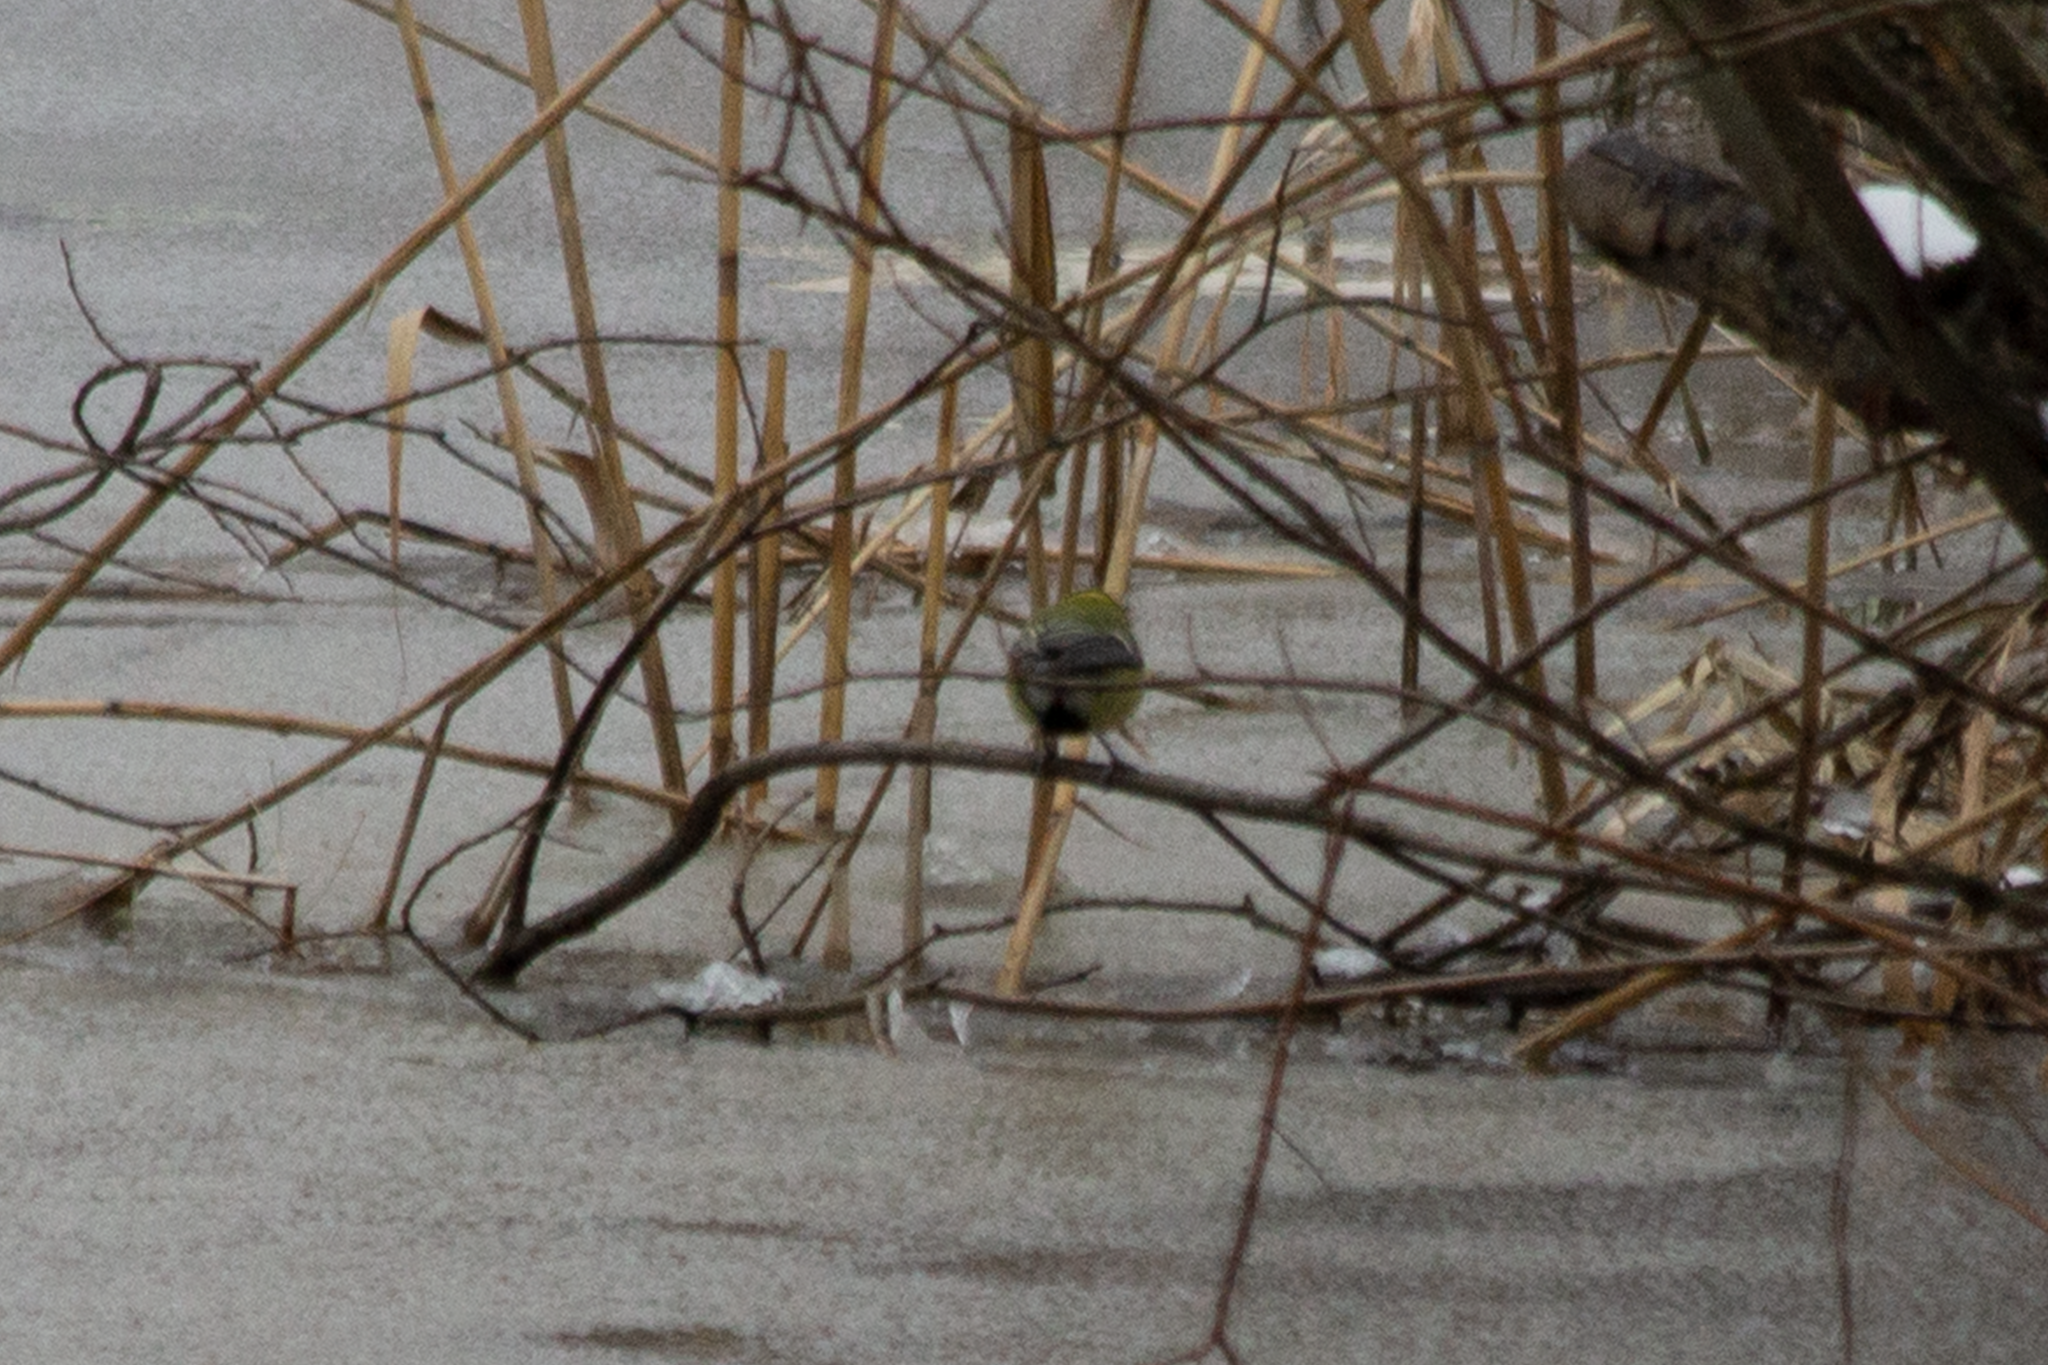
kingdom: Animalia
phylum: Chordata
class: Aves
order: Passeriformes
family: Paridae
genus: Parus
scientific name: Parus major
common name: Great tit
